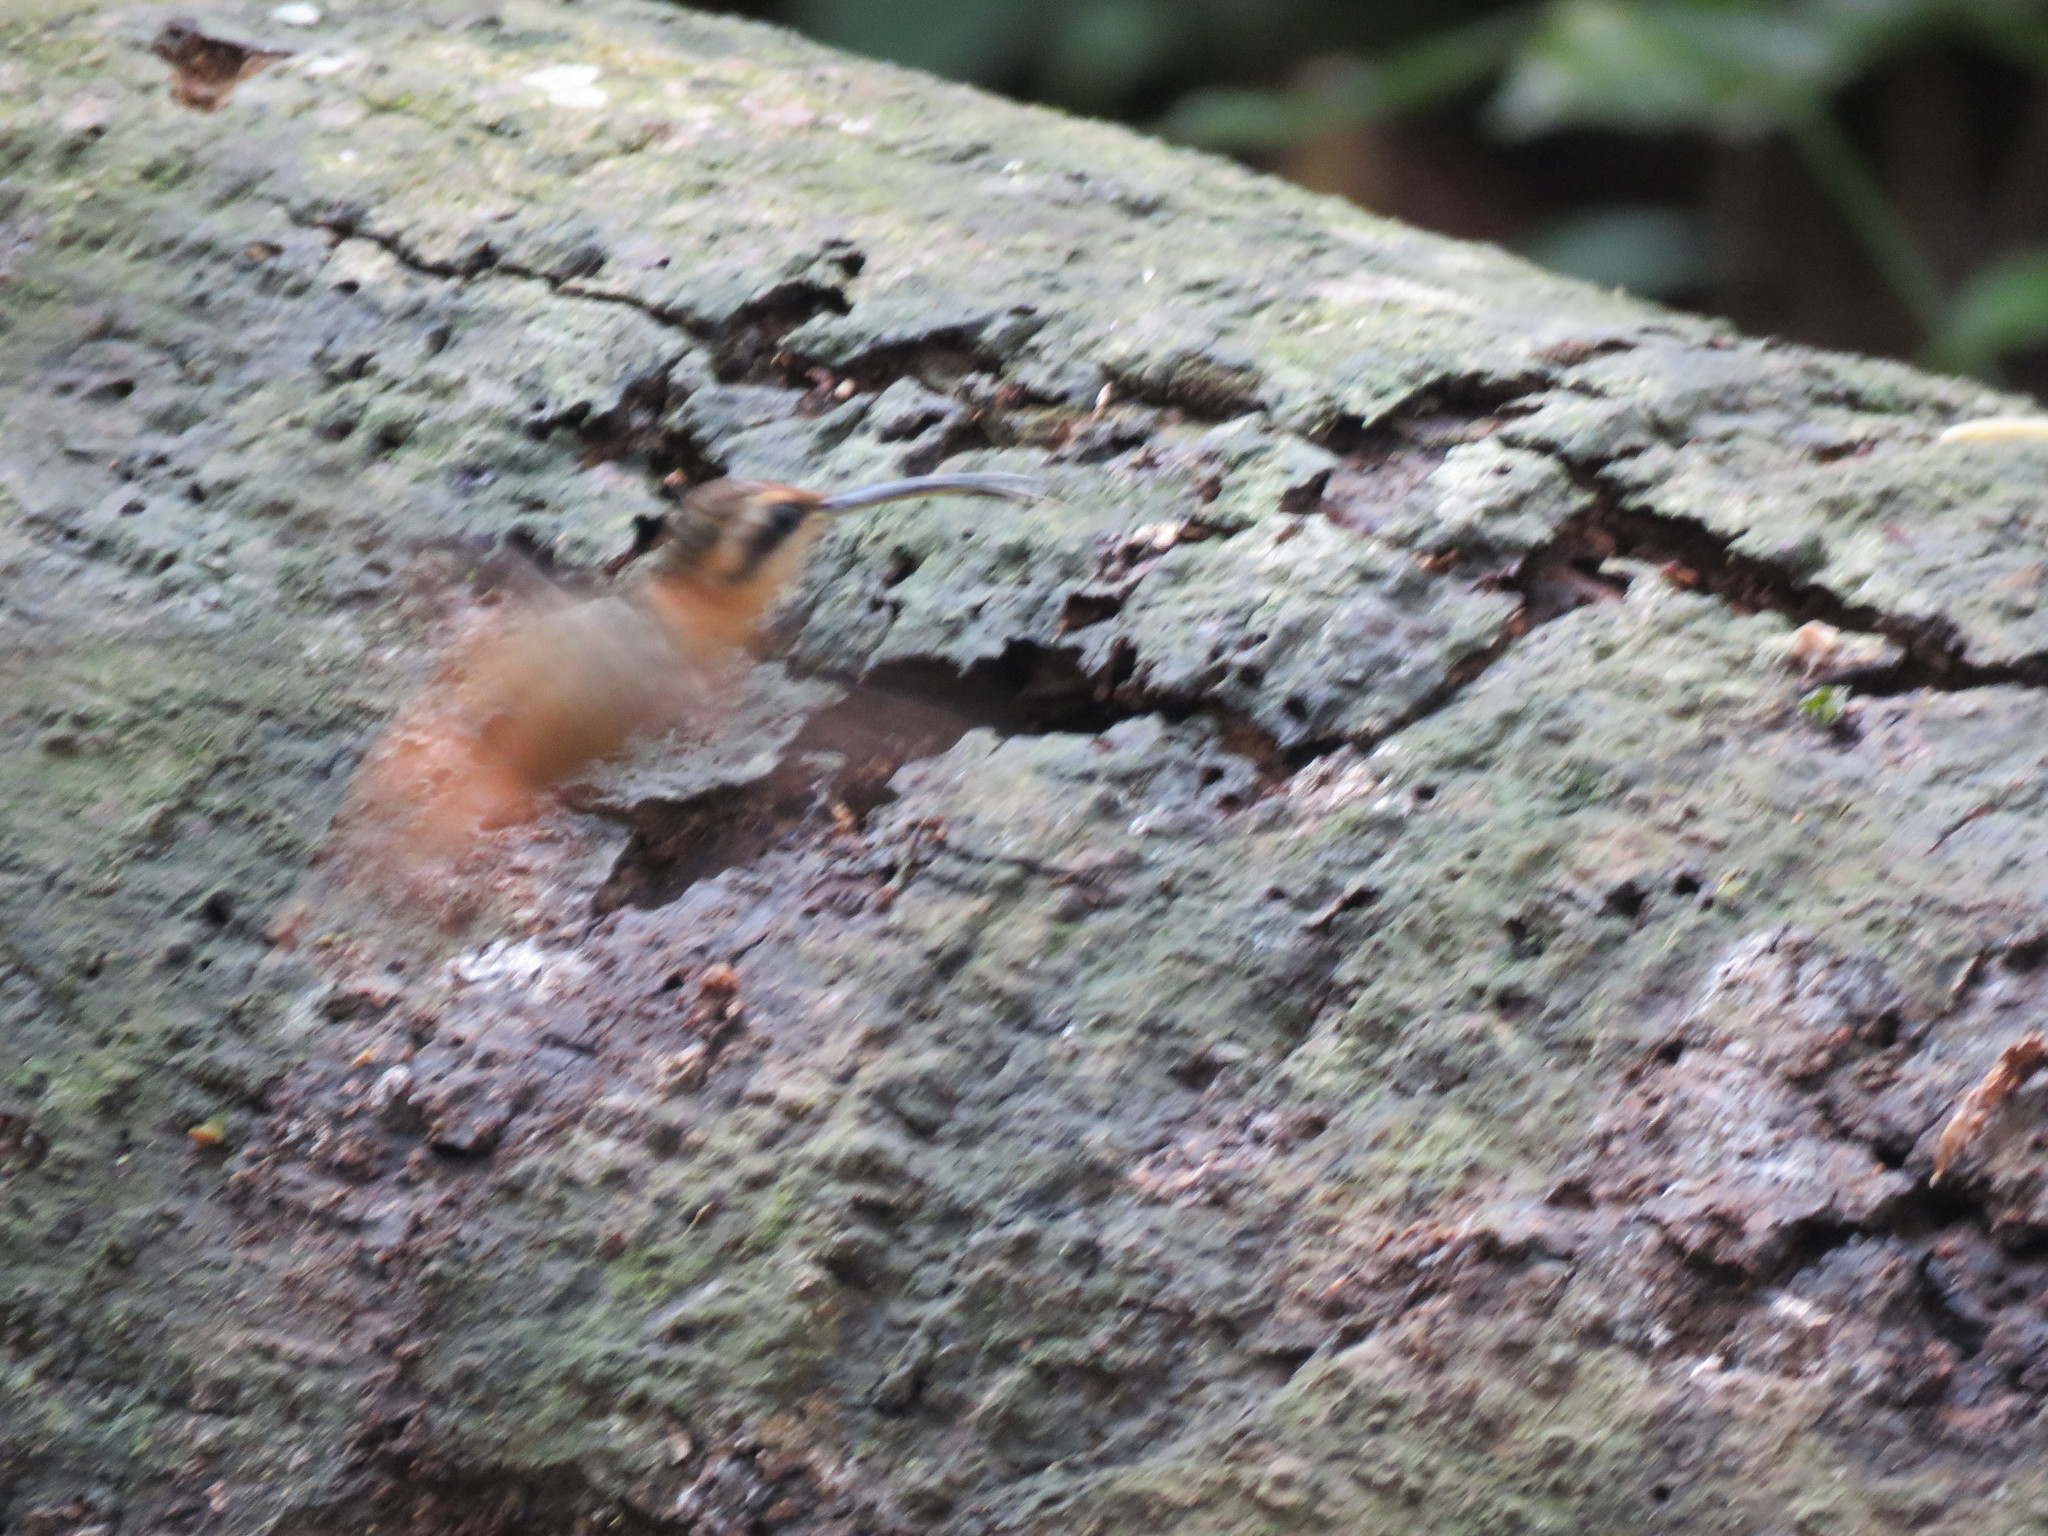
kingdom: Animalia
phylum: Chordata
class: Aves
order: Apodiformes
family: Trochilidae
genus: Phaethornis
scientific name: Phaethornis ruber
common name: Reddish hermit
